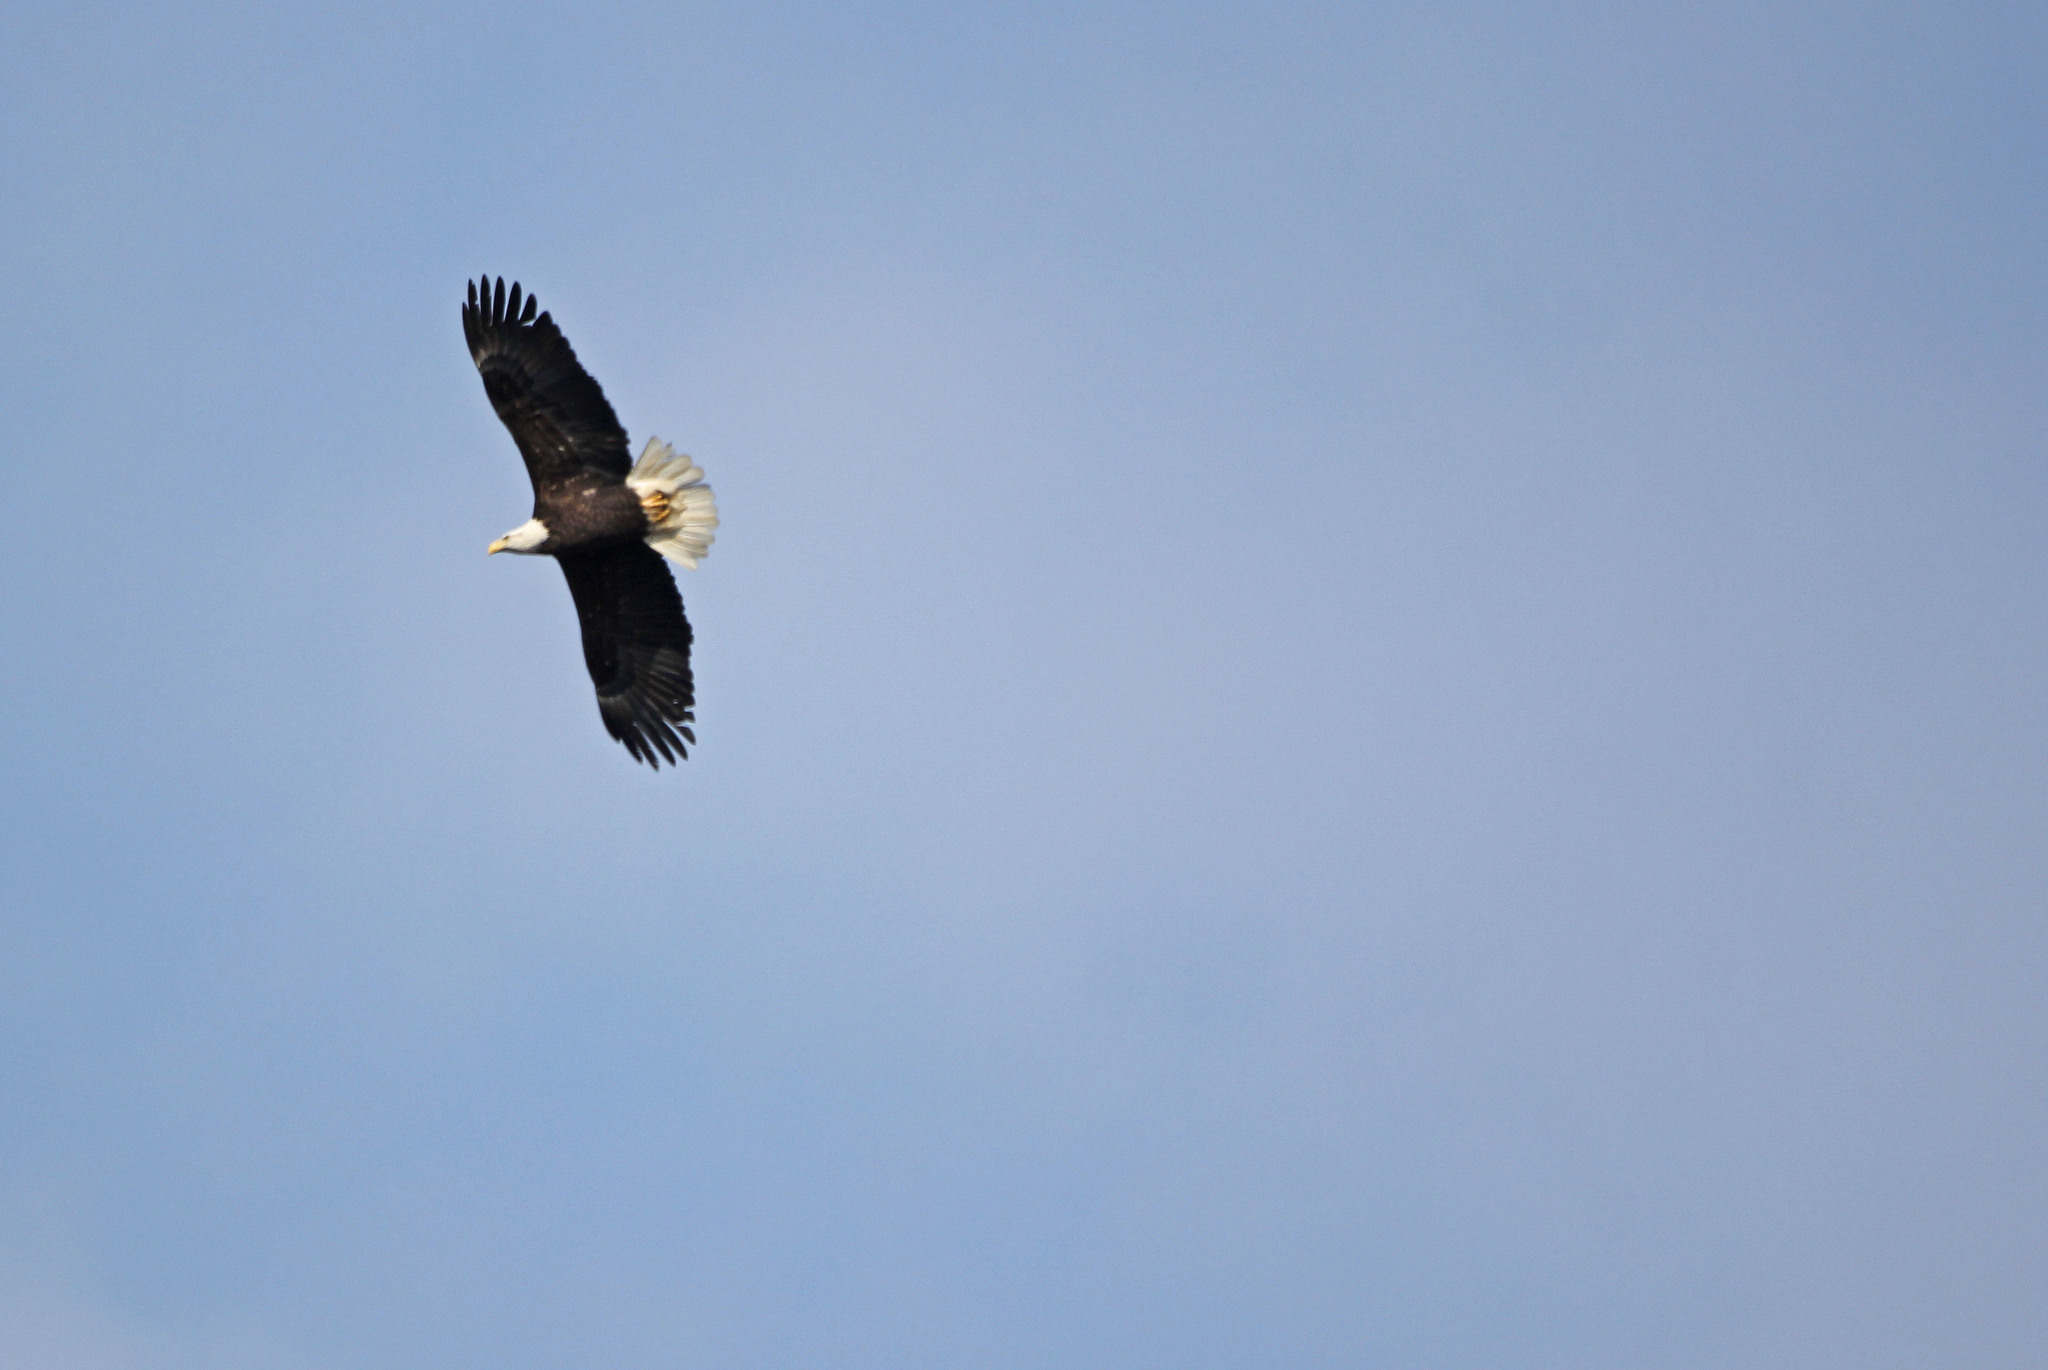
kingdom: Animalia
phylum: Chordata
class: Aves
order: Accipitriformes
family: Accipitridae
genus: Haliaeetus
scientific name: Haliaeetus leucocephalus
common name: Bald eagle
